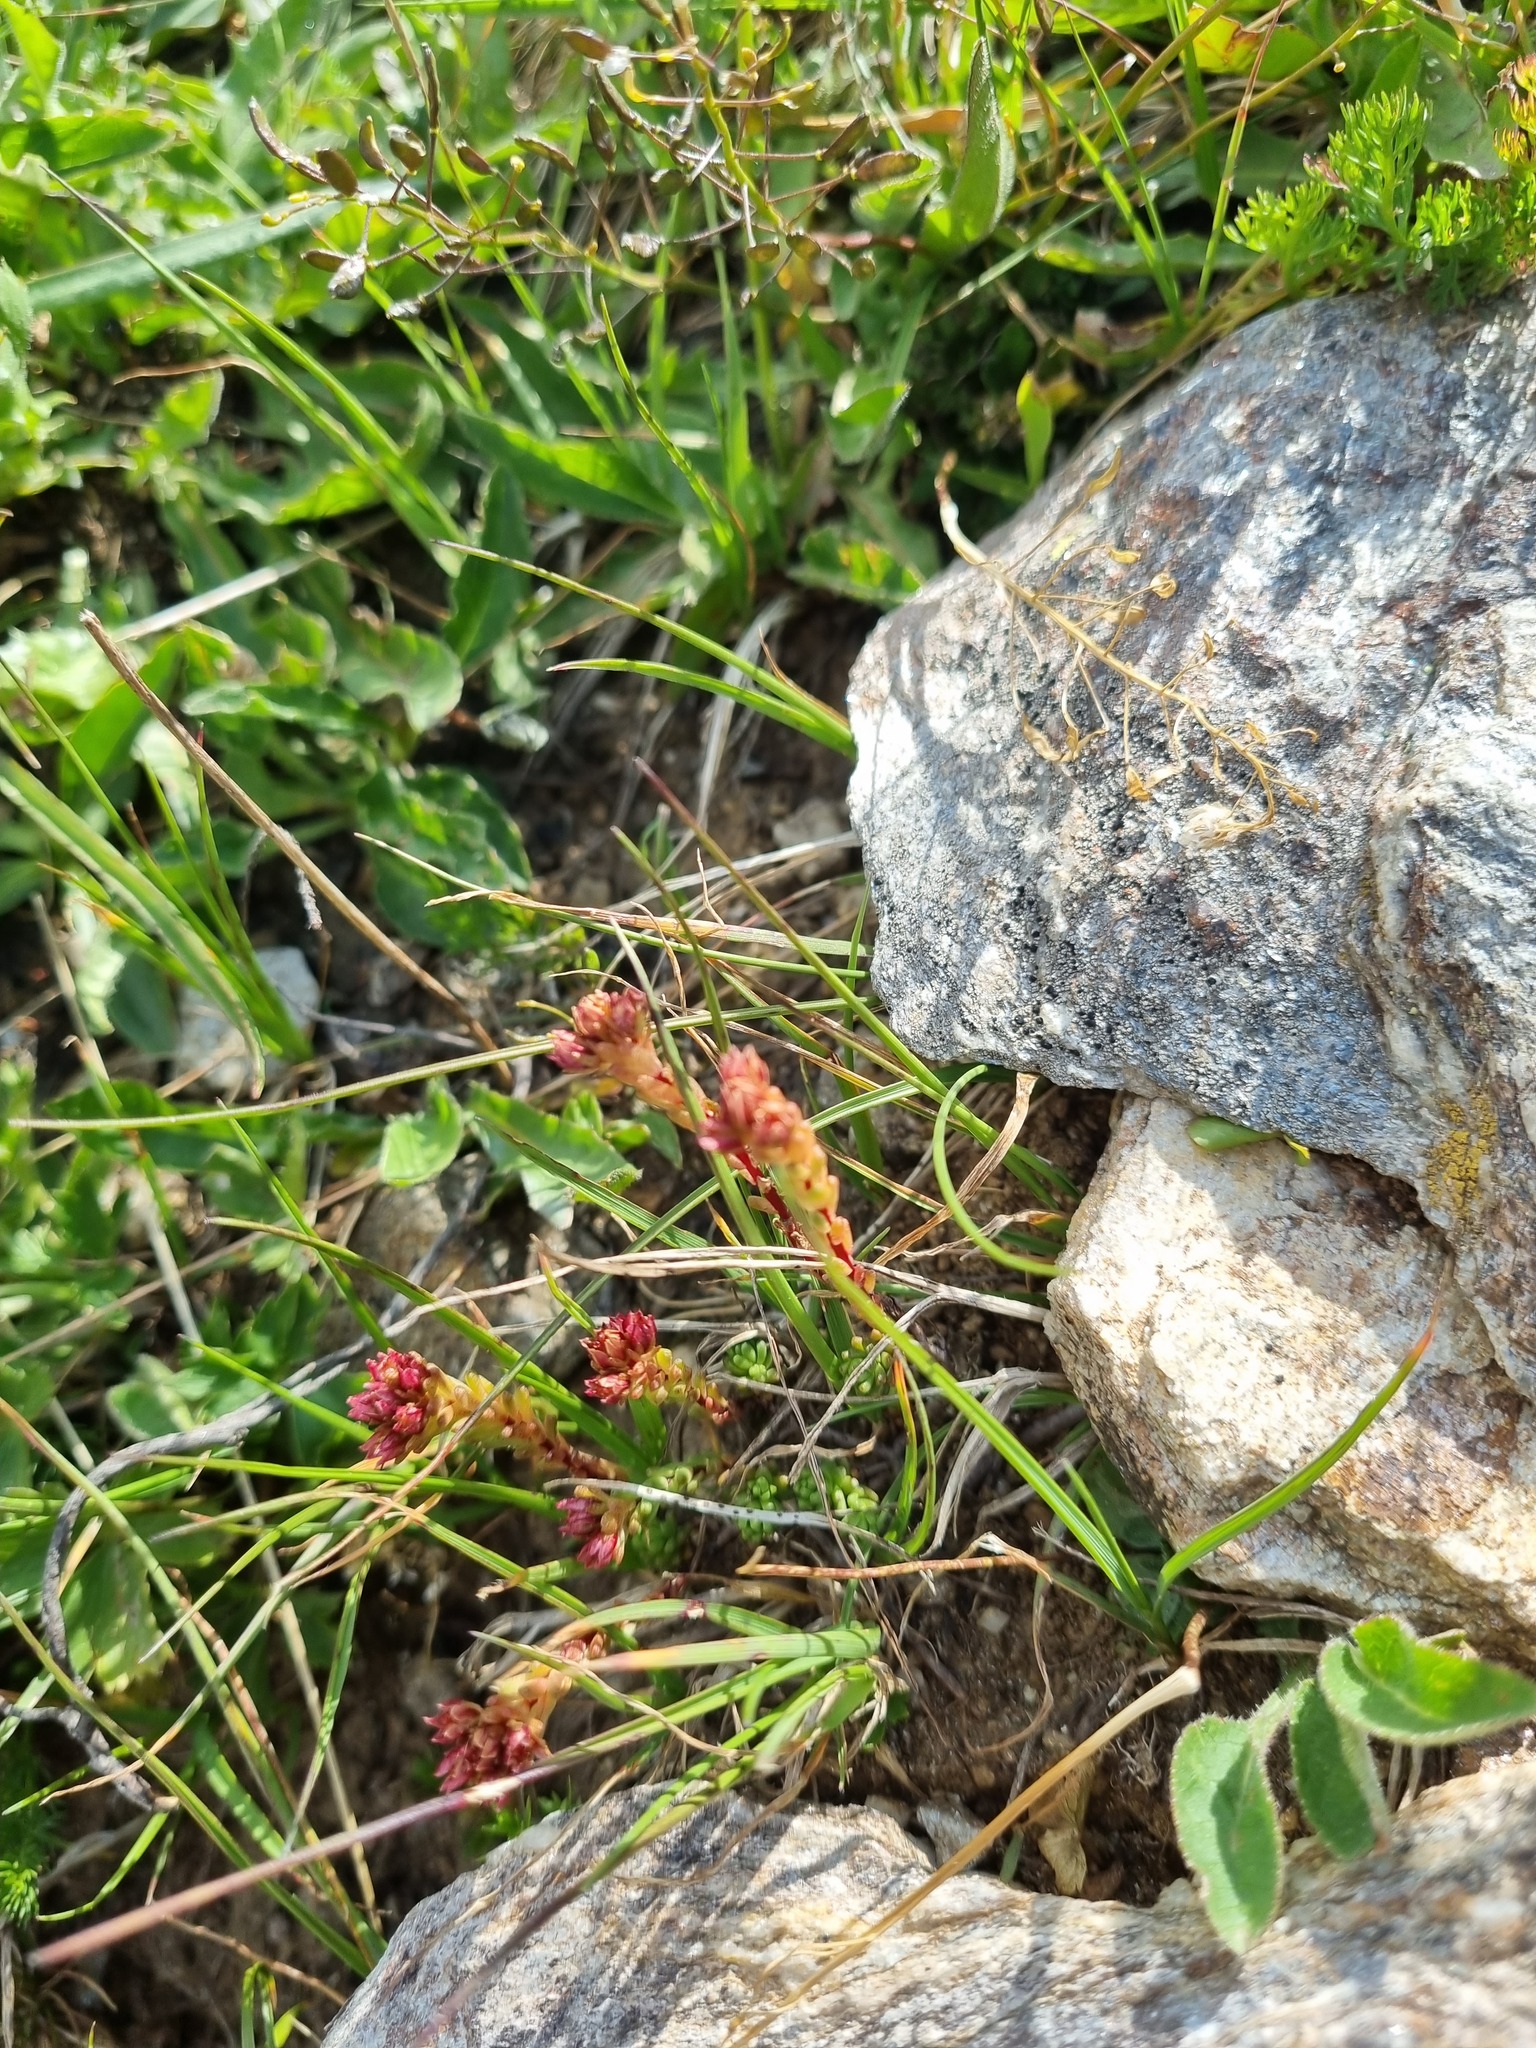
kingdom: Plantae
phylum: Tracheophyta
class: Magnoliopsida
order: Saxifragales
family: Crassulaceae
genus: Sedum
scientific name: Sedum tenellum
